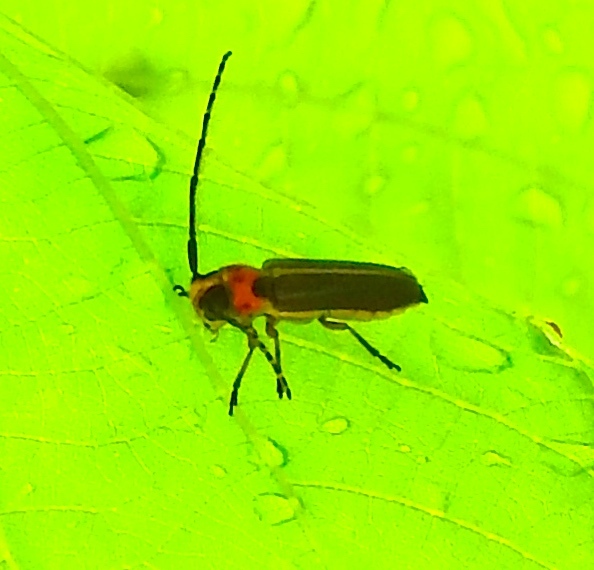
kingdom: Animalia
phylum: Arthropoda
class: Insecta
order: Coleoptera
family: Cerambycidae
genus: Essostrutha
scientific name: Essostrutha binotata
